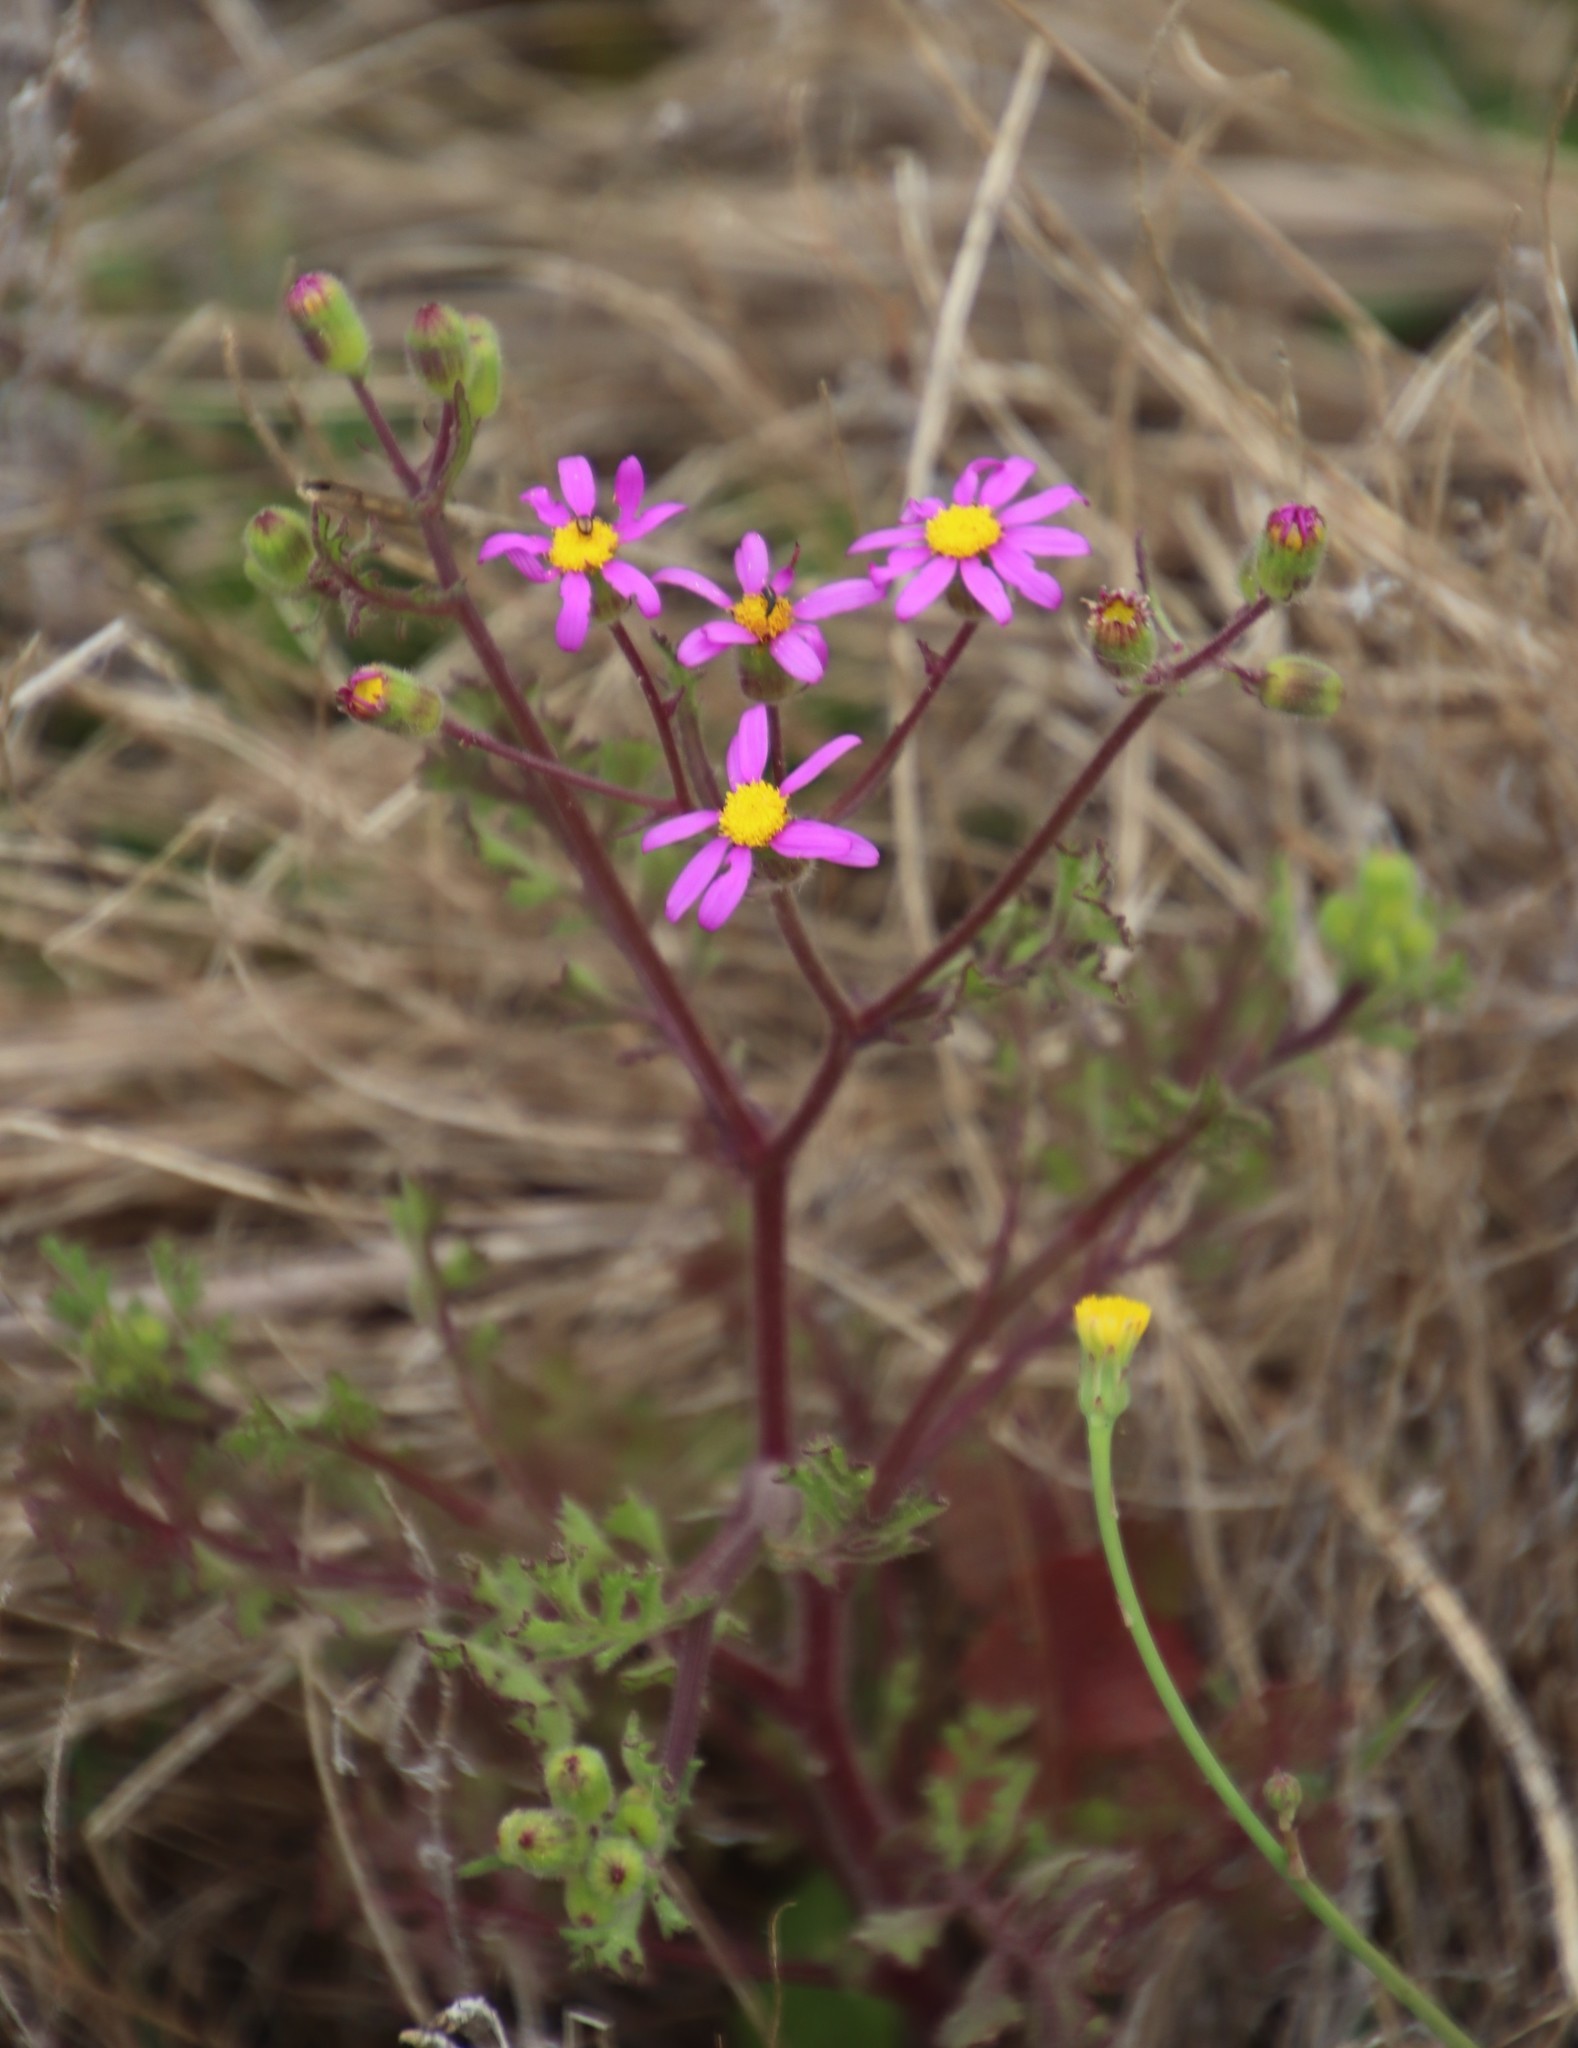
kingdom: Plantae
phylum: Tracheophyta
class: Magnoliopsida
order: Asterales
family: Asteraceae
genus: Senecio
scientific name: Senecio arenarius
